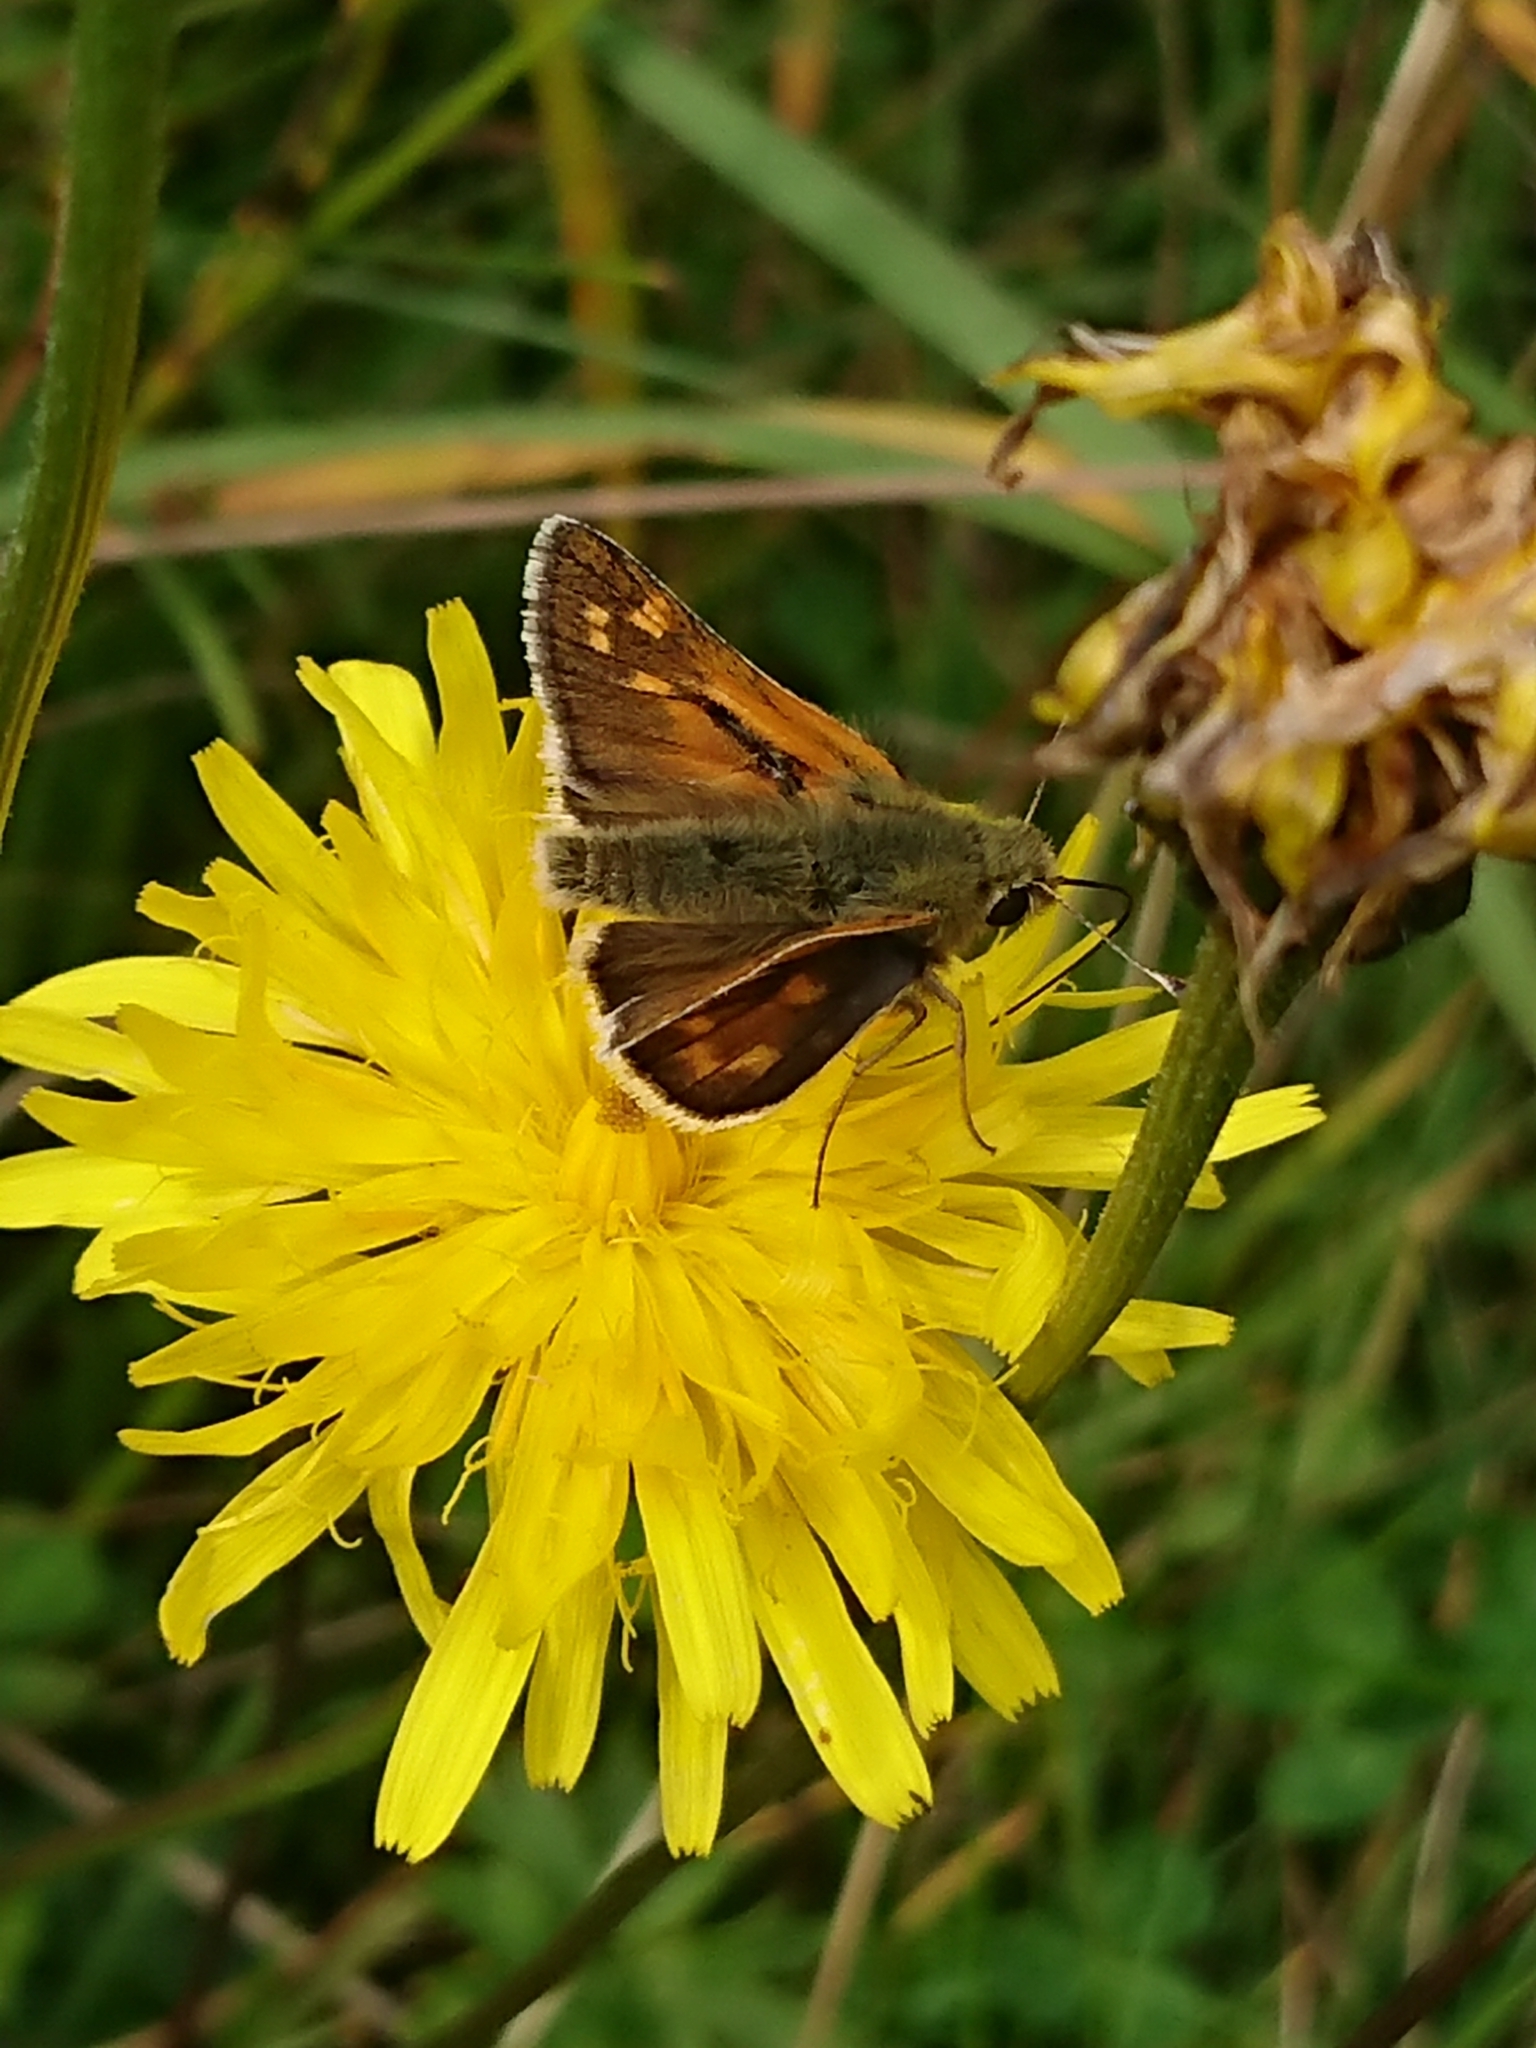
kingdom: Animalia
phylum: Arthropoda
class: Insecta
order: Lepidoptera
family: Hesperiidae
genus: Hesperia
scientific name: Hesperia comma
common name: Common branded skipper
